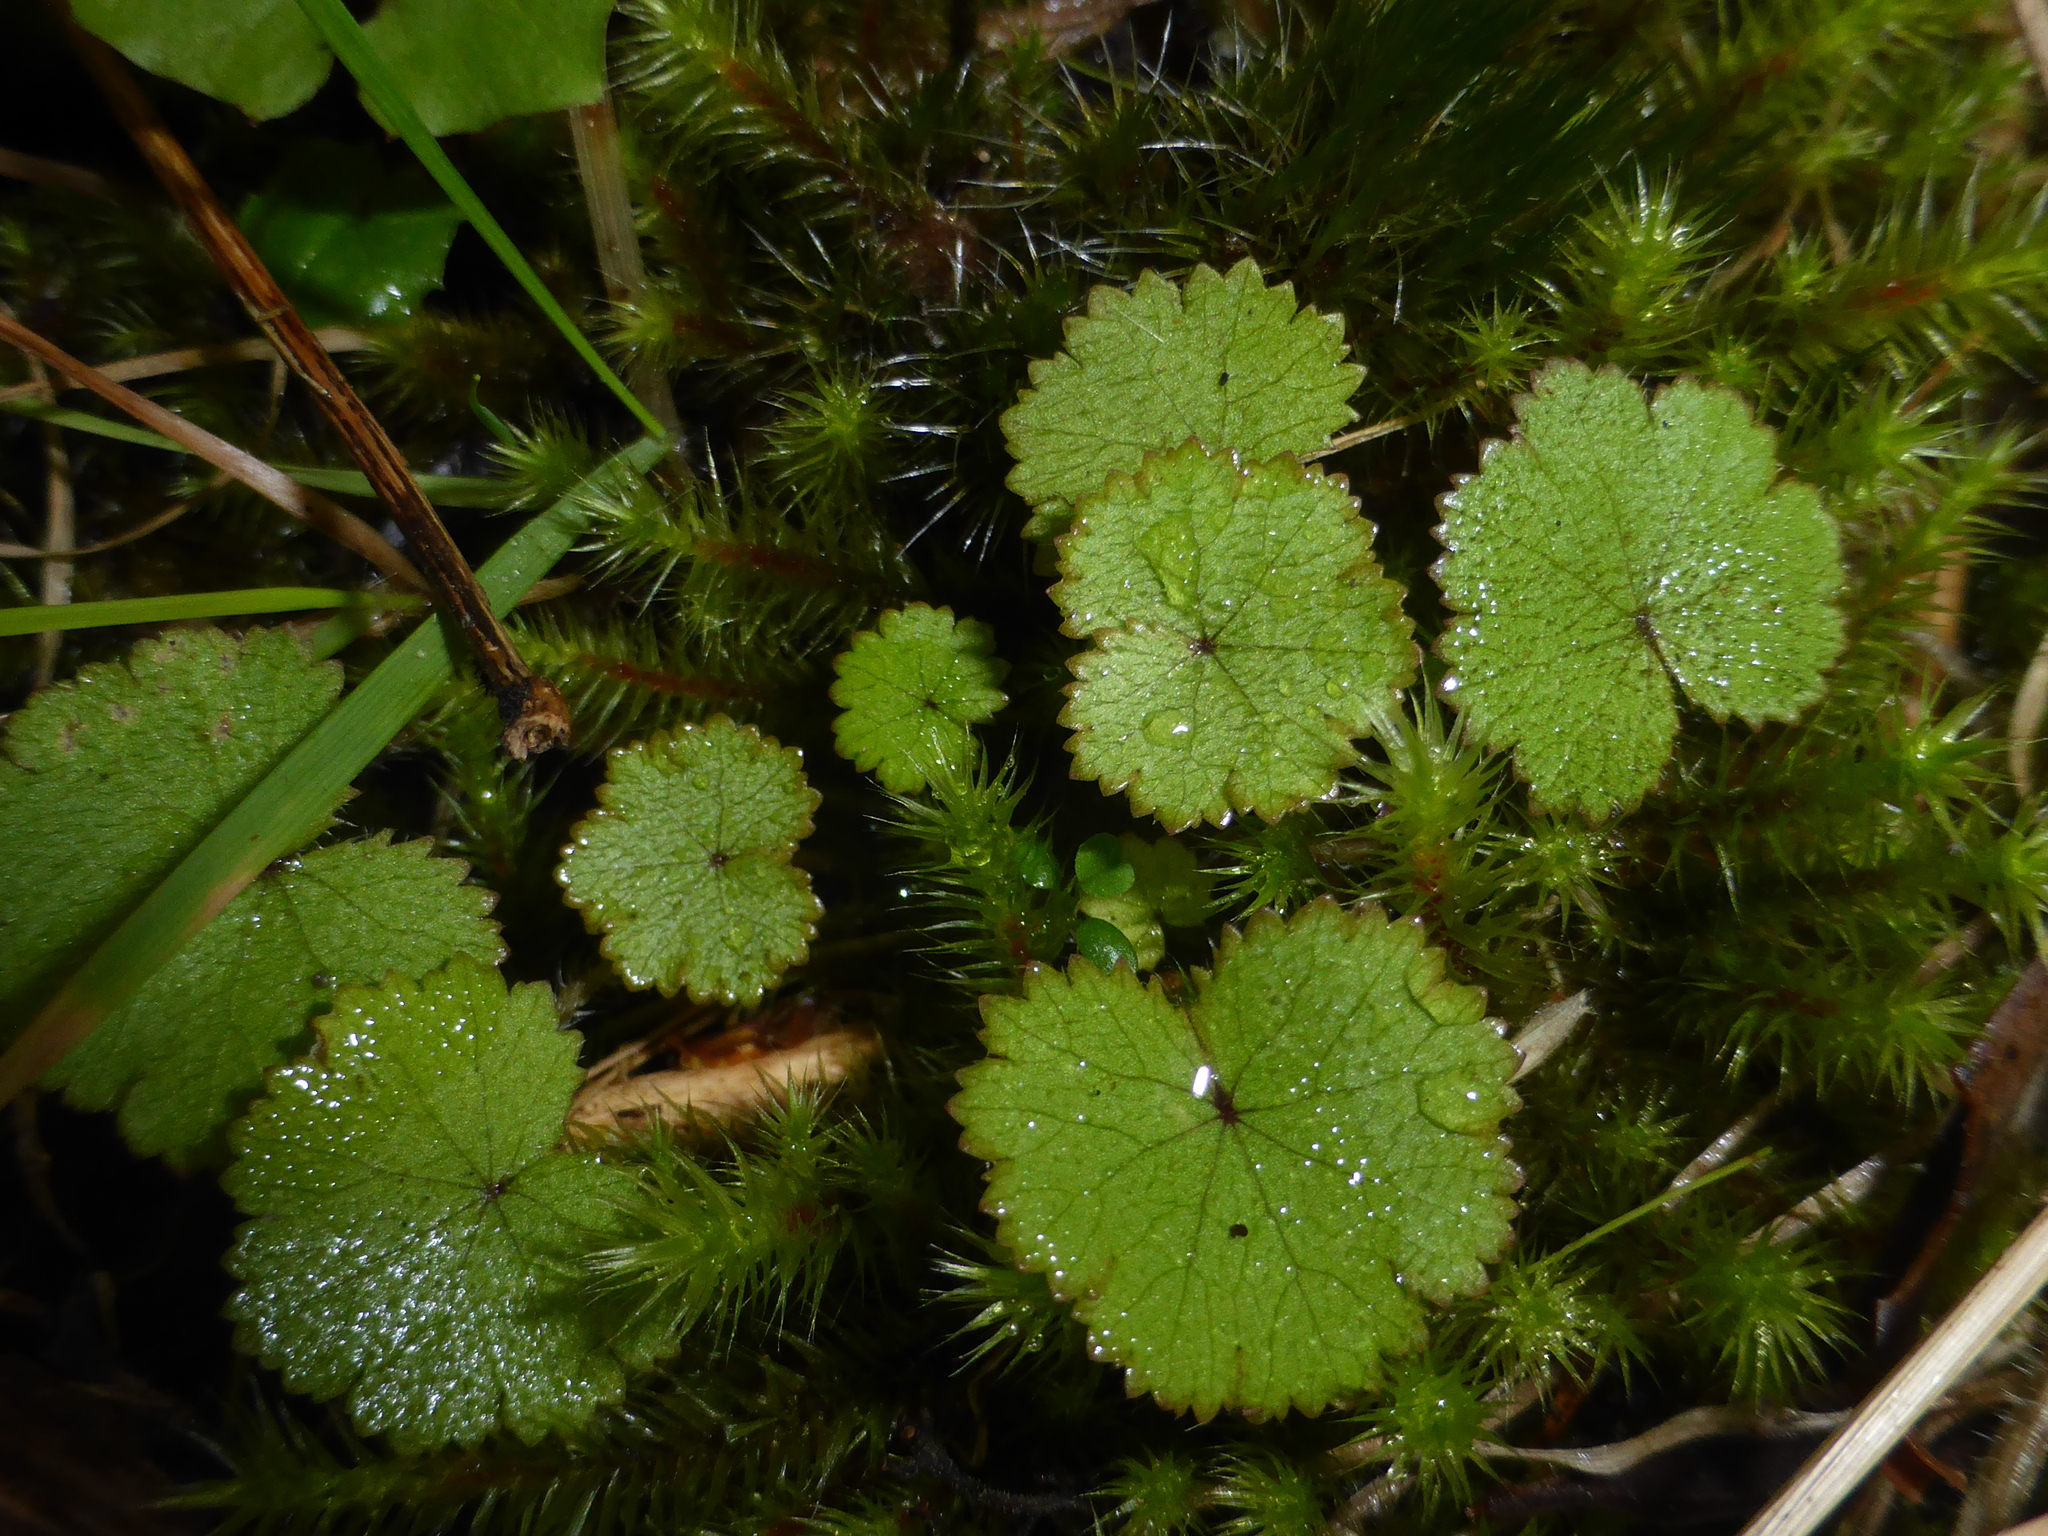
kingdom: Plantae
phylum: Tracheophyta
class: Magnoliopsida
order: Apiales
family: Araliaceae
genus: Hydrocotyle
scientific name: Hydrocotyle moschata
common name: Hairy pennywort
